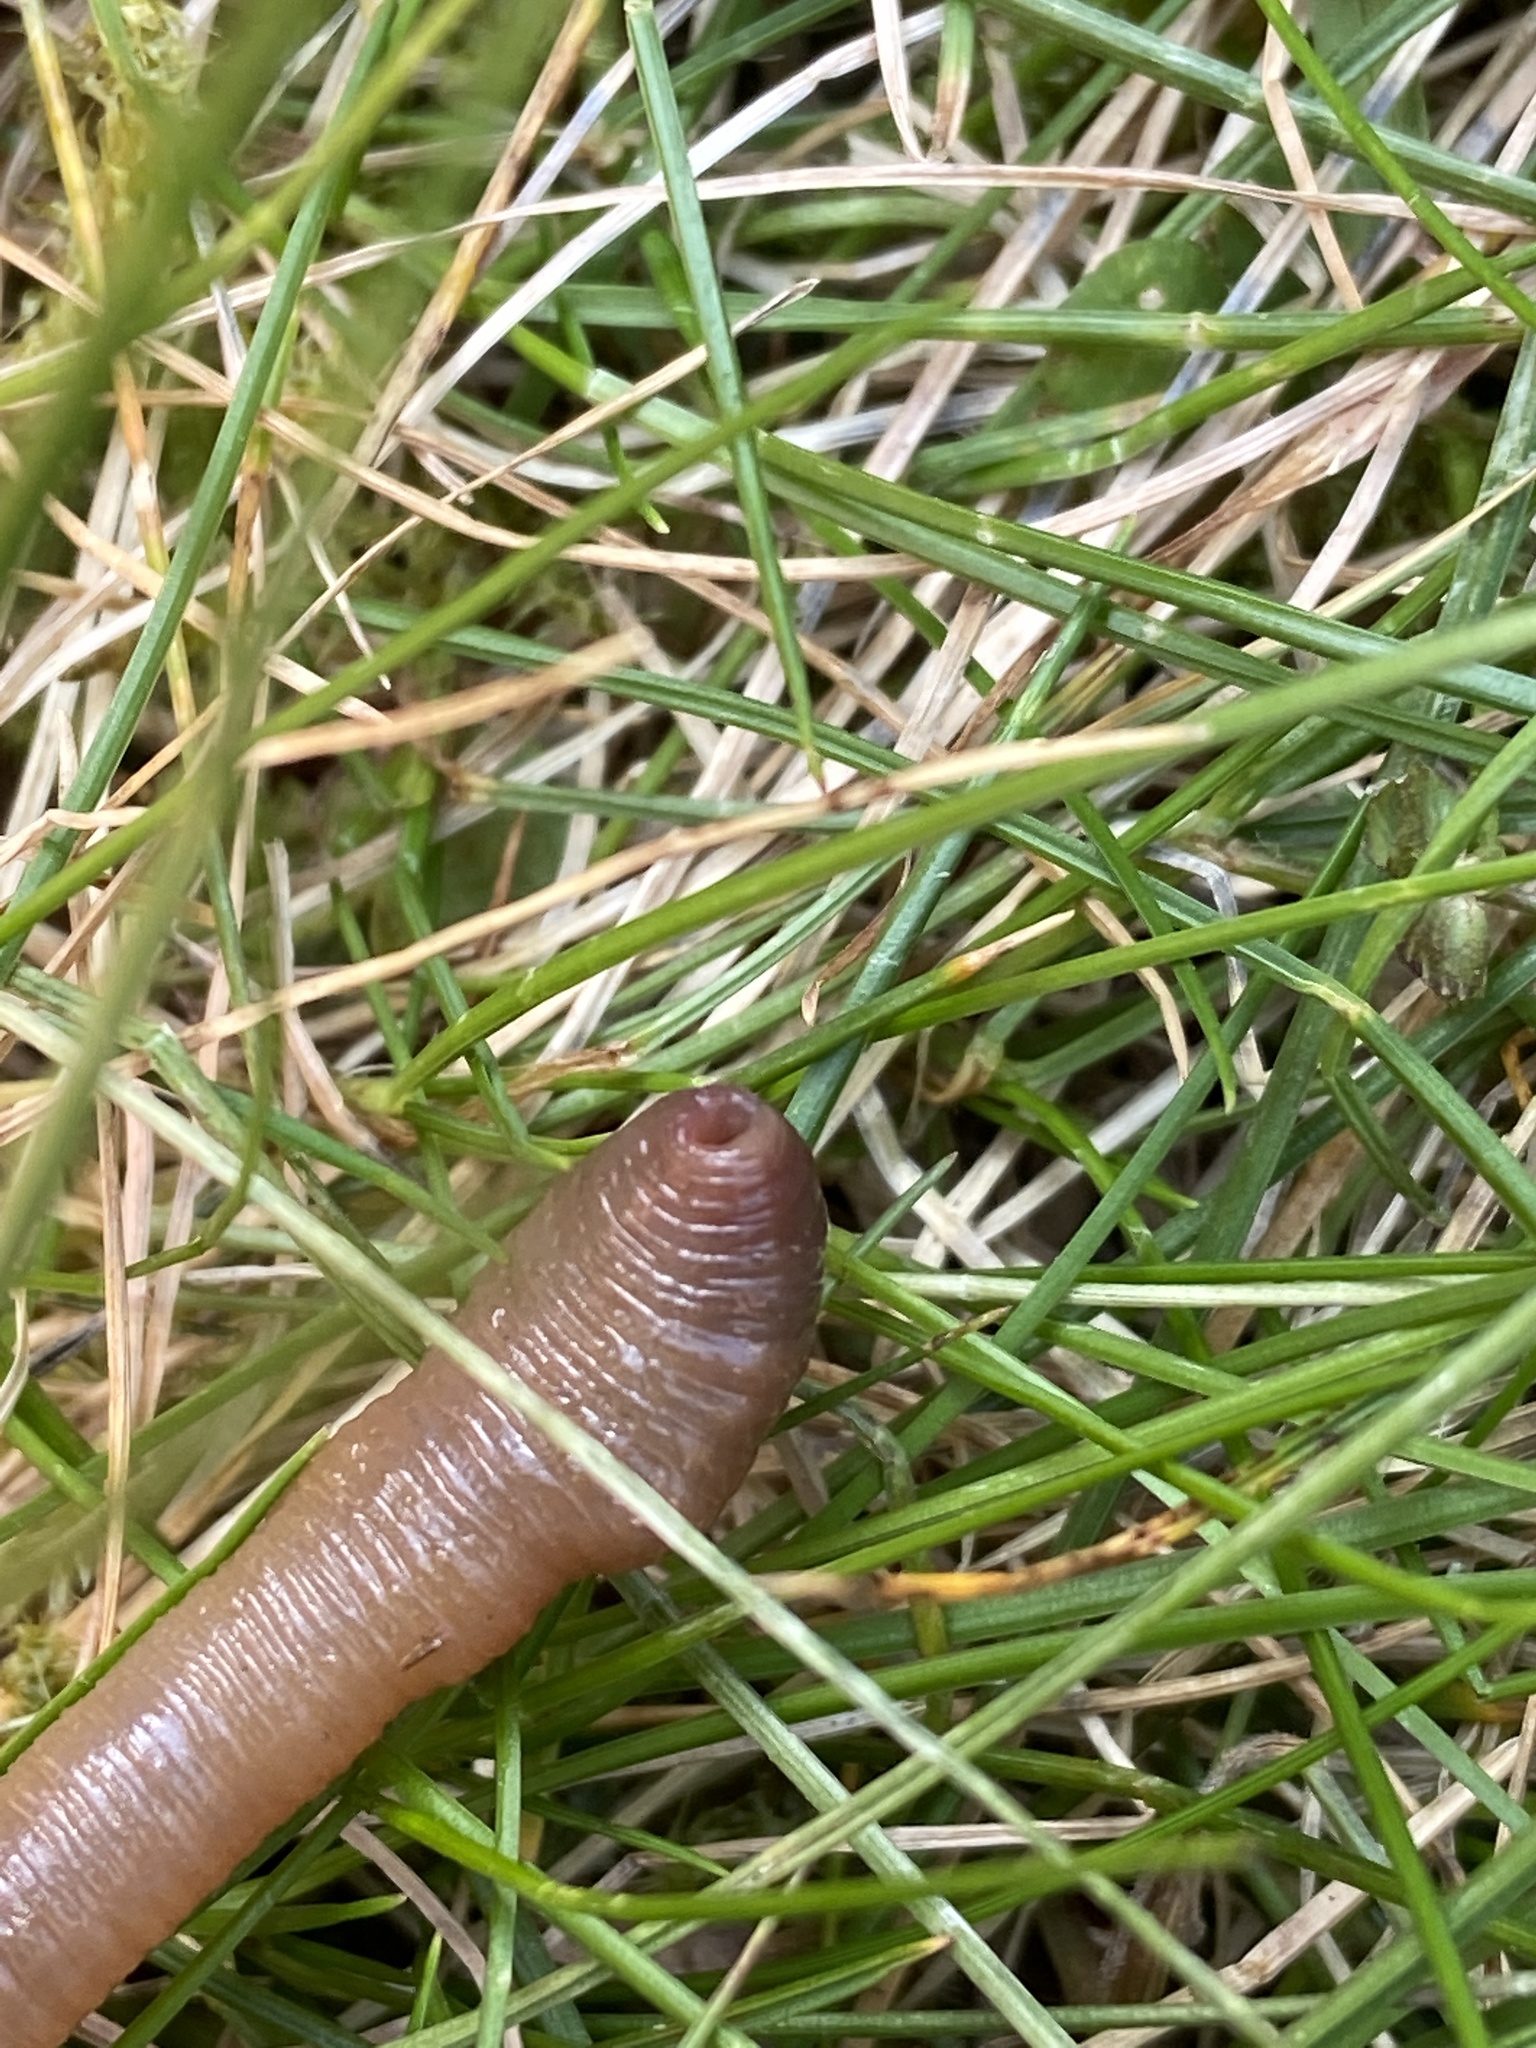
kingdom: Animalia
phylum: Annelida
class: Clitellata
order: Crassiclitellata
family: Lumbricidae
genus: Lumbricus
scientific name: Lumbricus terrestris
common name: Common earthworm
